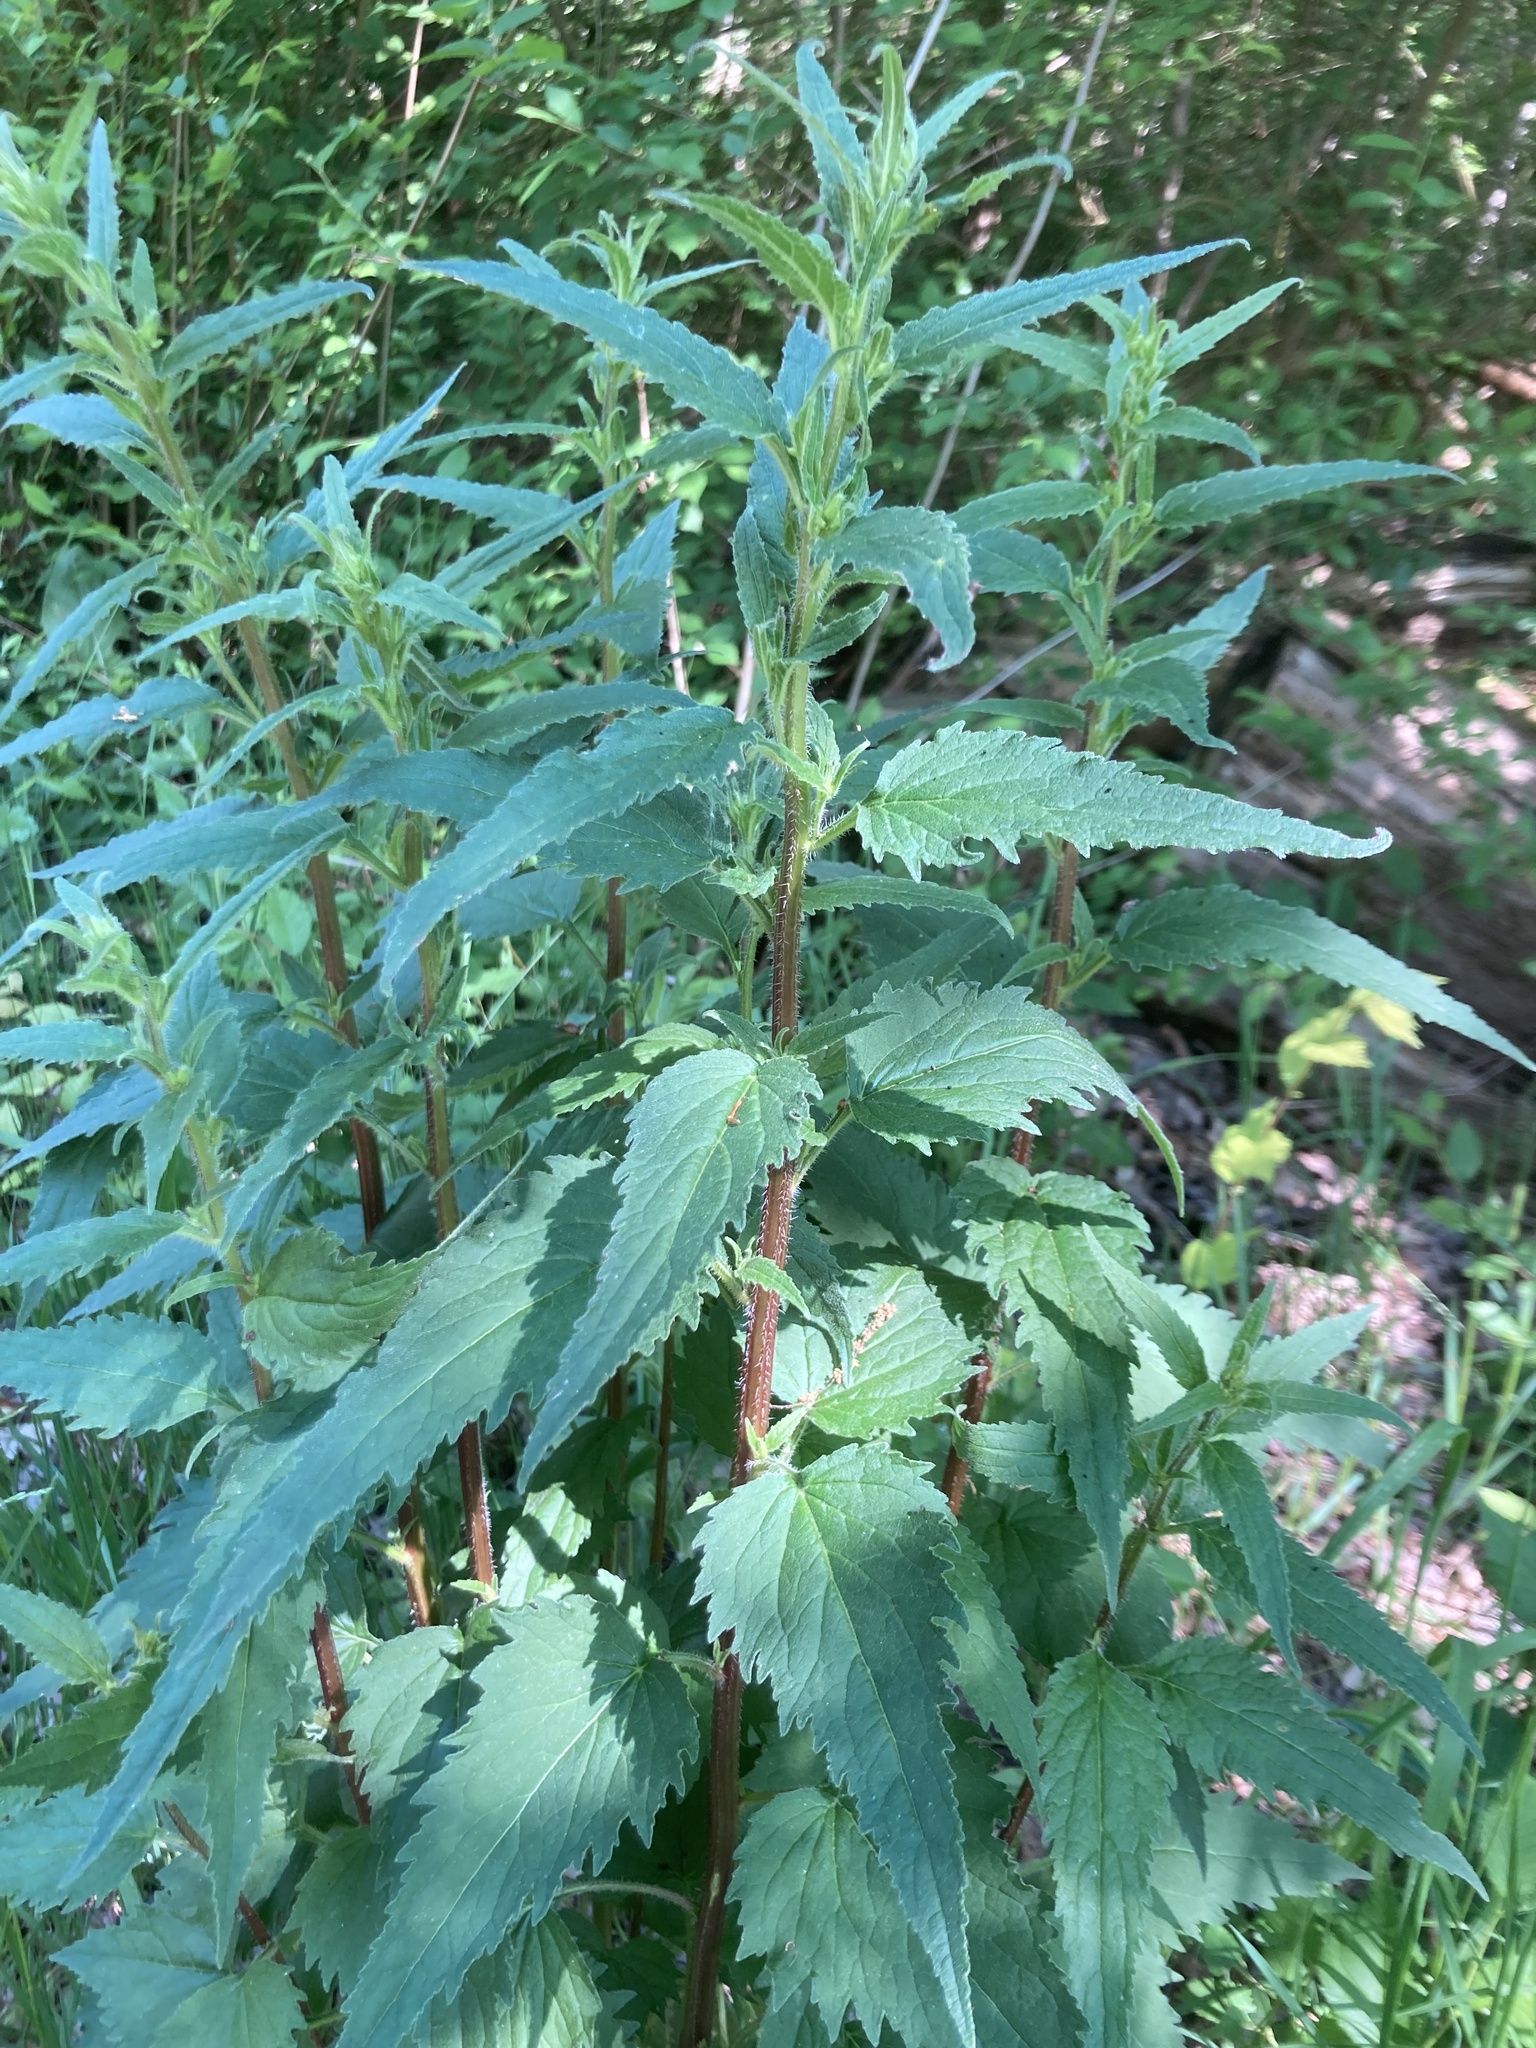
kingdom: Plantae
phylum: Tracheophyta
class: Magnoliopsida
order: Asterales
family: Campanulaceae
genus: Campanula
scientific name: Campanula trachelium
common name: Nettle-leaved bellflower
